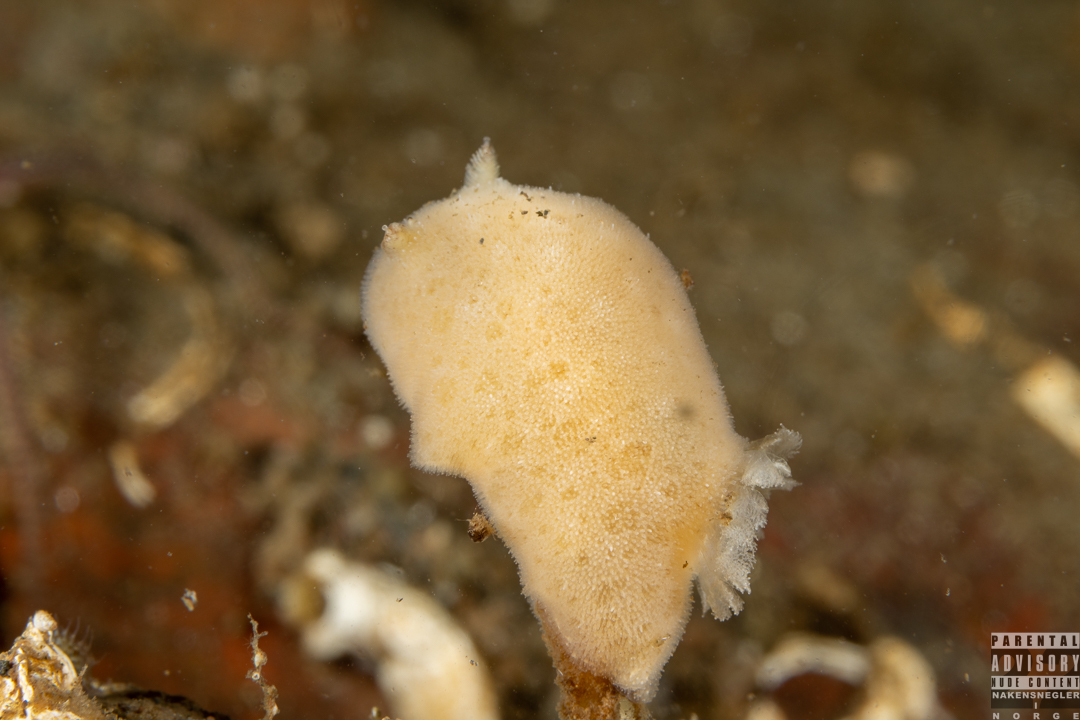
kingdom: Animalia
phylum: Mollusca
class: Gastropoda
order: Nudibranchia
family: Discodorididae
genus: Jorunna
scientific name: Jorunna tomentosa
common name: Grey sea slug
